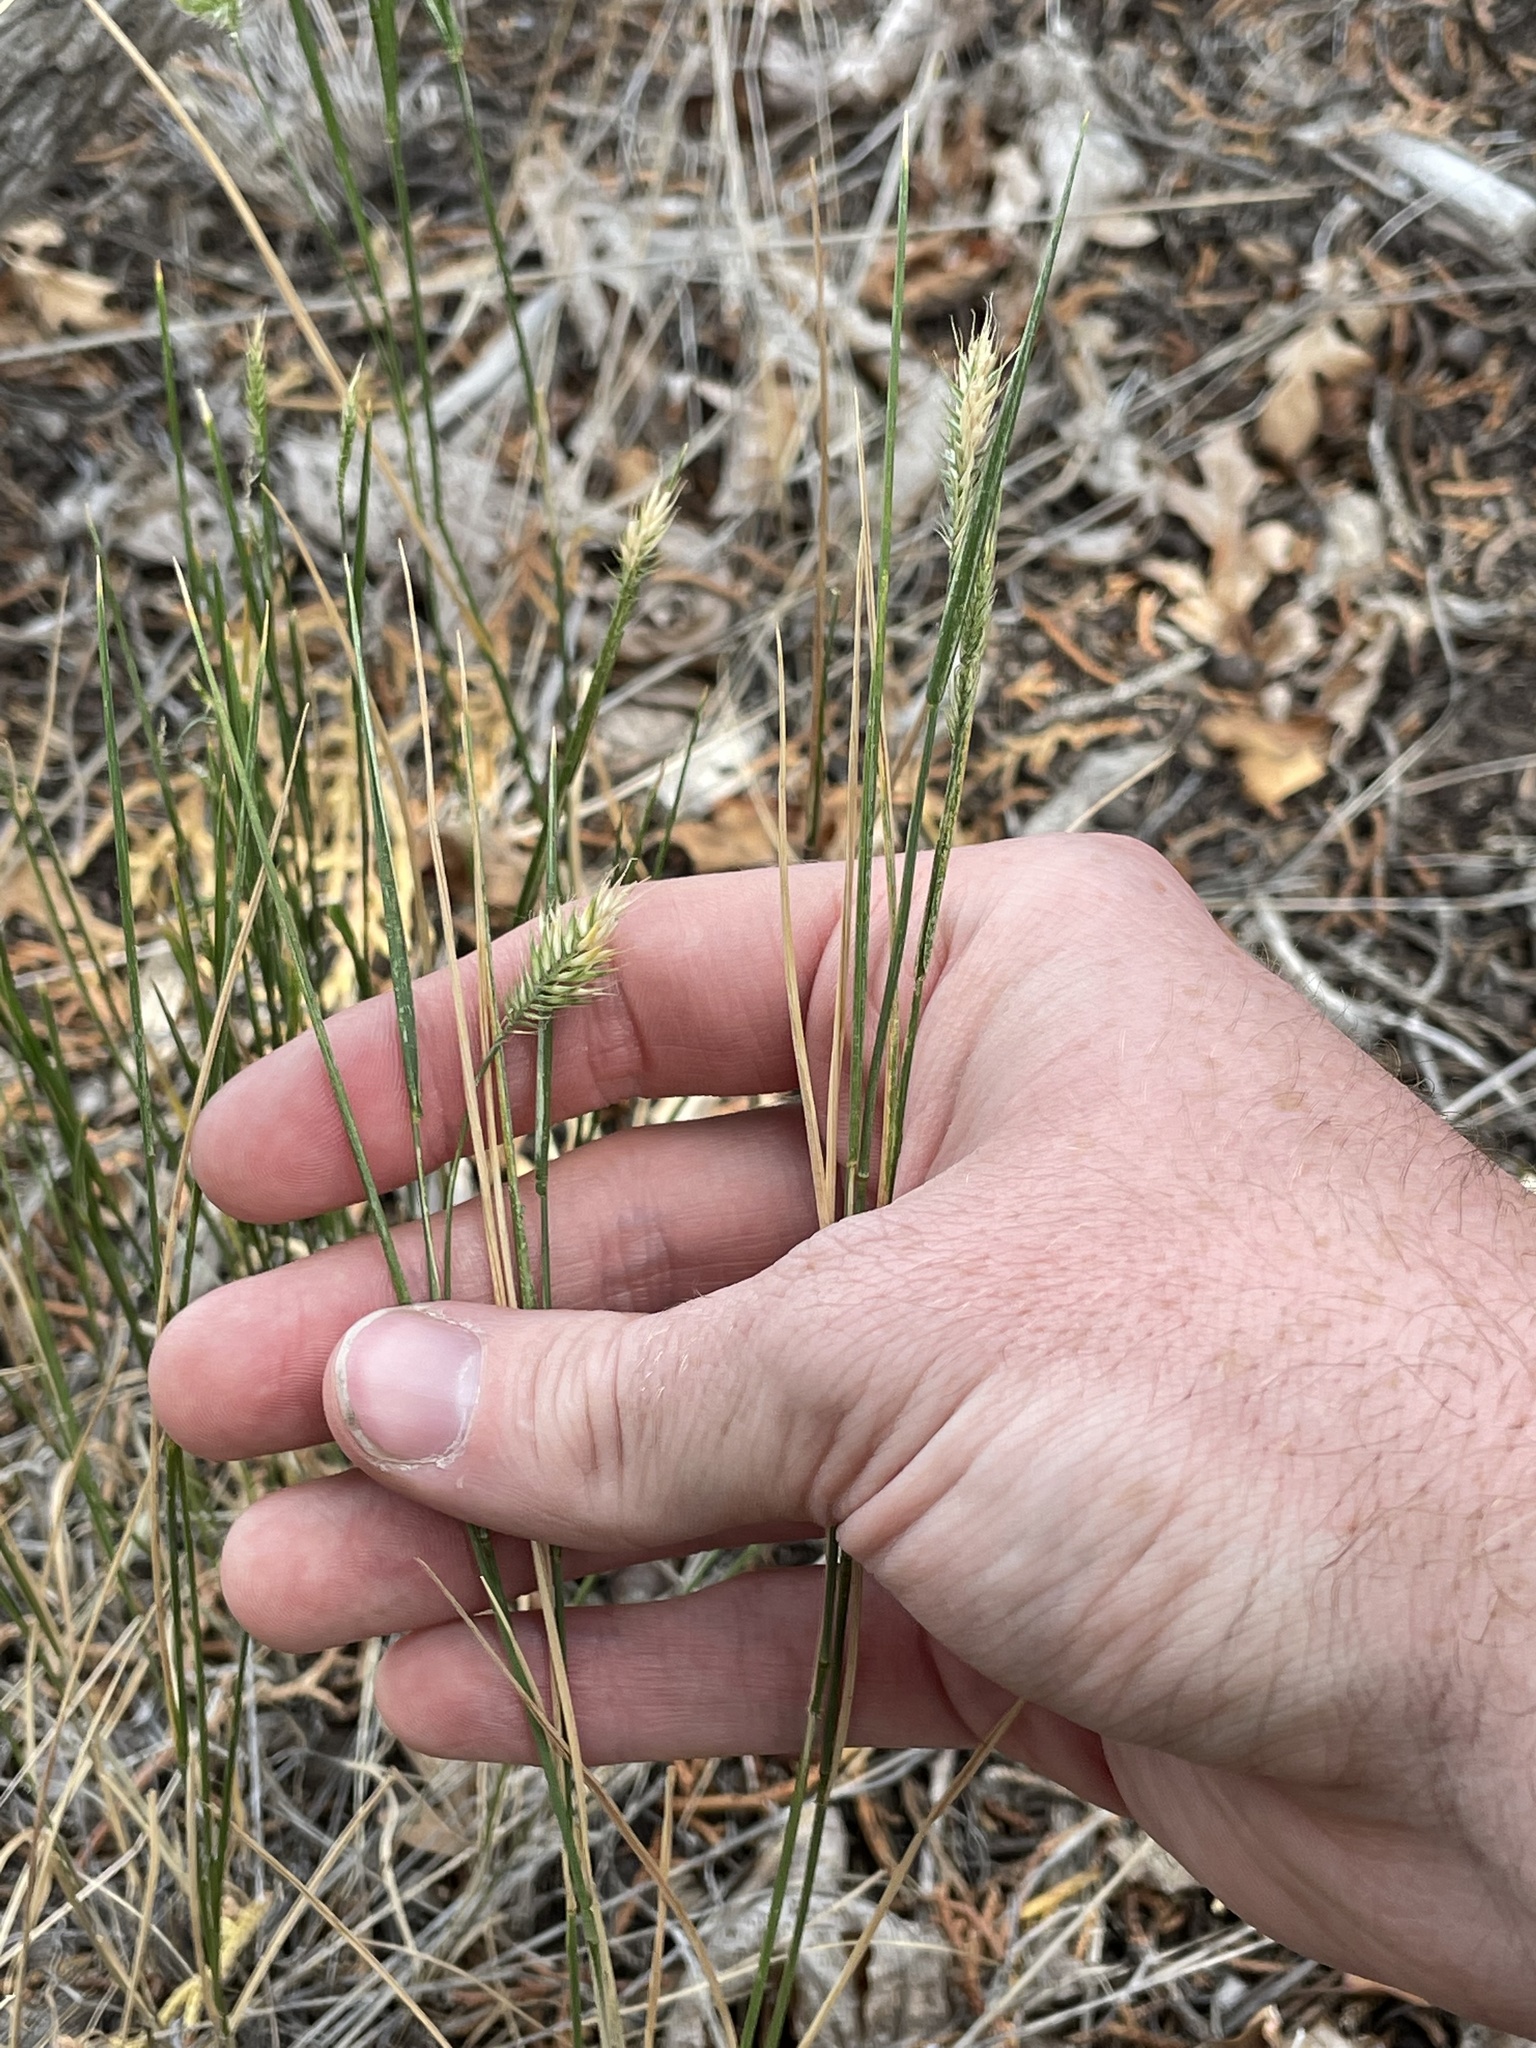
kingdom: Plantae
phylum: Tracheophyta
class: Liliopsida
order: Poales
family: Poaceae
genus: Agropyron
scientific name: Agropyron cristatum
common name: Crested wheatgrass
